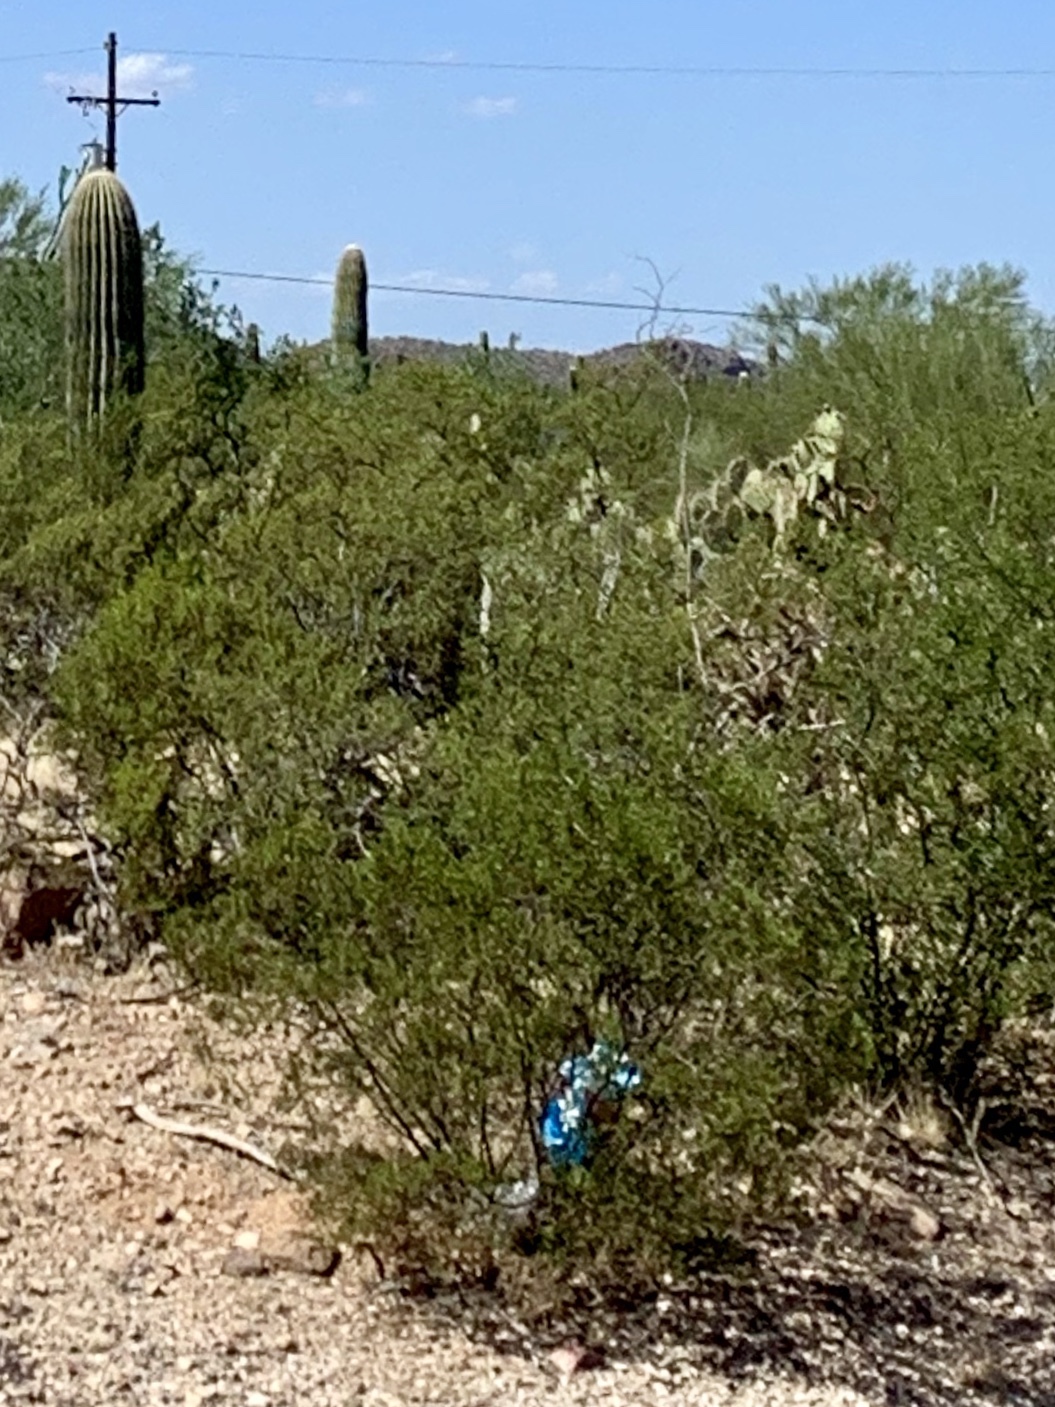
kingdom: Plantae
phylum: Tracheophyta
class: Magnoliopsida
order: Zygophyllales
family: Zygophyllaceae
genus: Larrea
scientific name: Larrea tridentata
